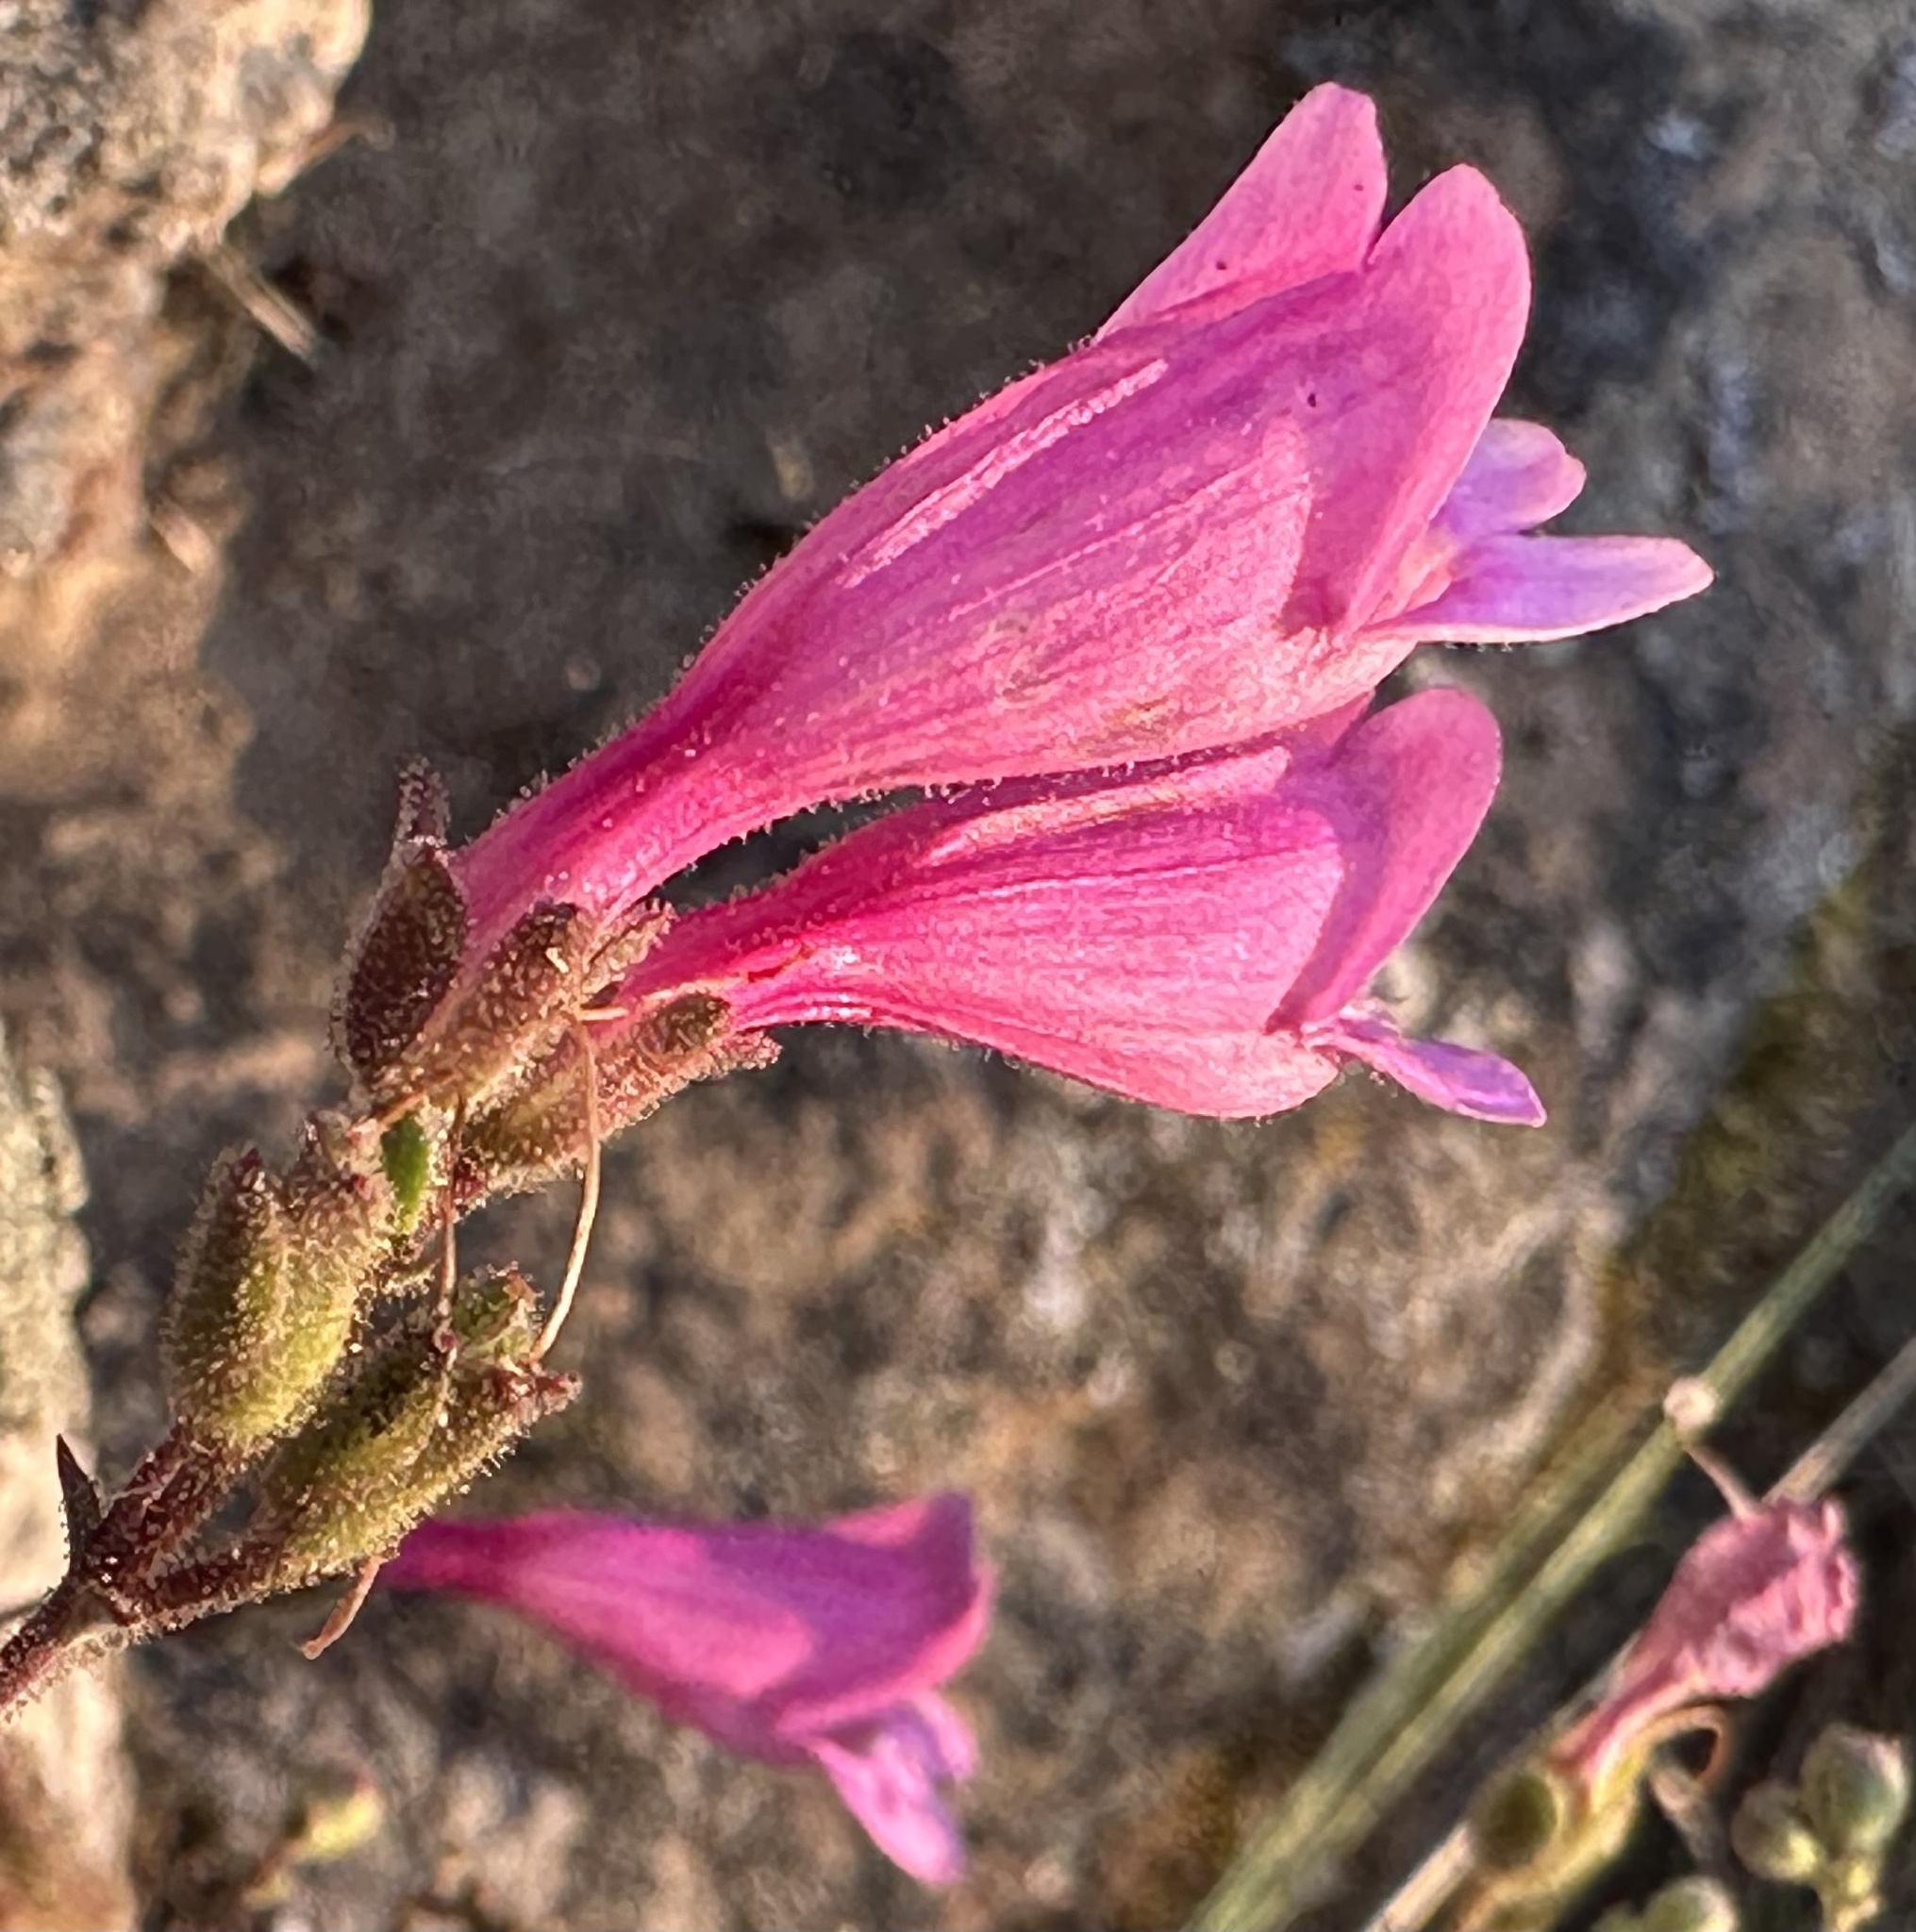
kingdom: Plantae
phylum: Tracheophyta
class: Magnoliopsida
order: Lamiales
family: Plantaginaceae
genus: Penstemon
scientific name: Penstemon richardsonii
